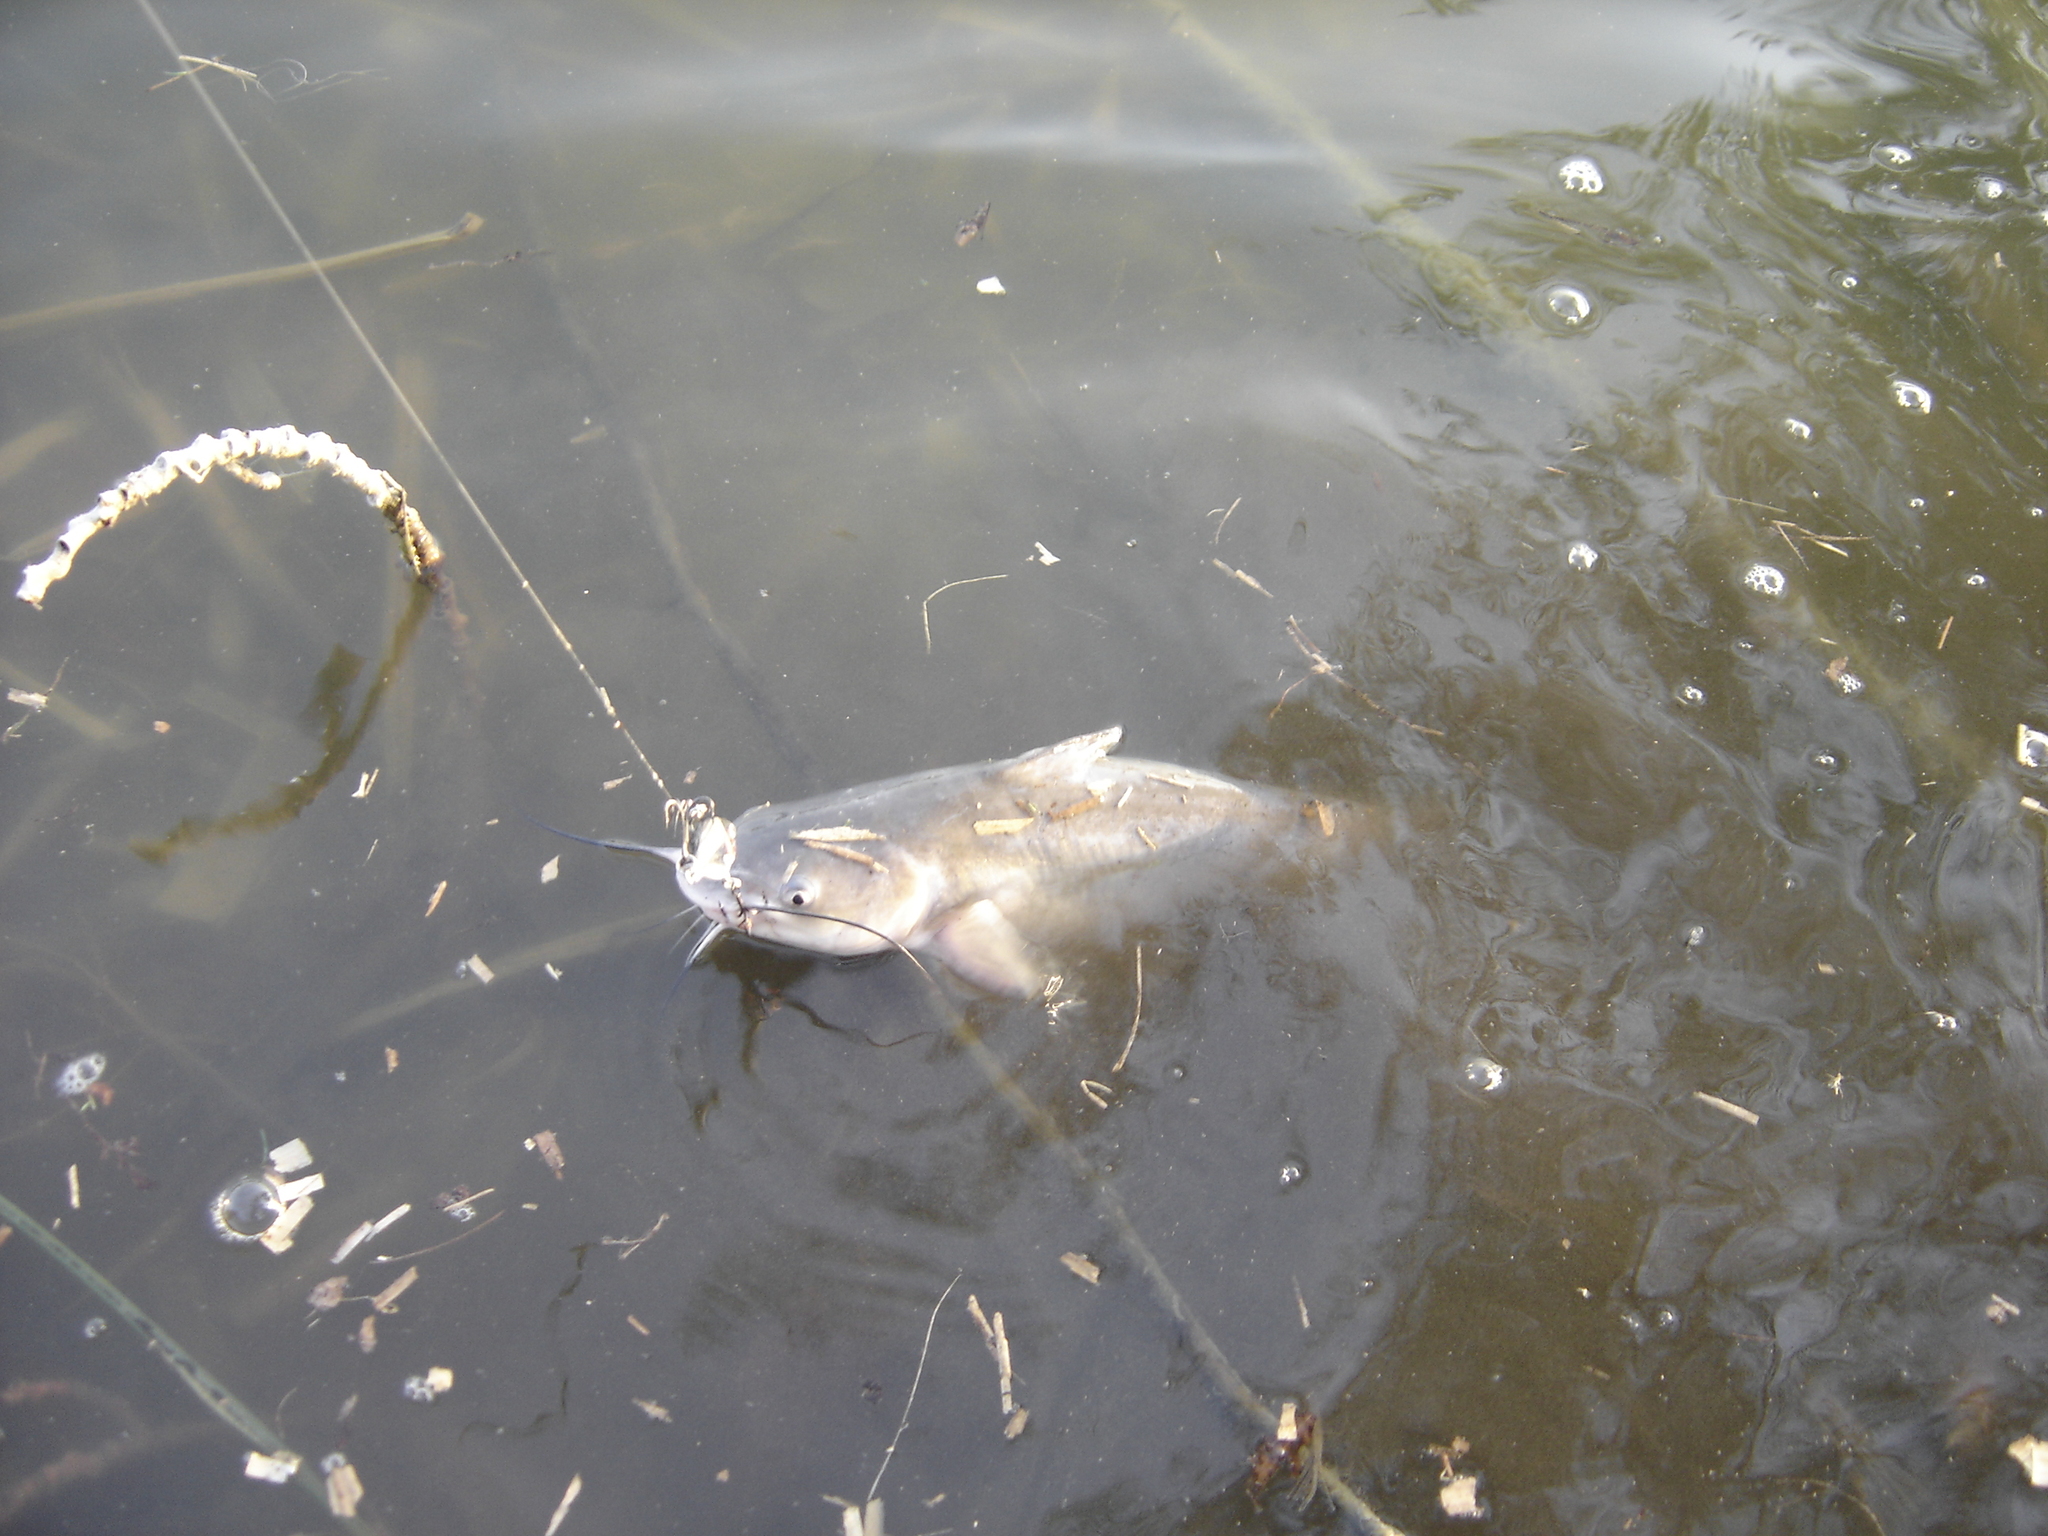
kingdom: Animalia
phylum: Chordata
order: Siluriformes
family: Ictaluridae
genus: Ictalurus
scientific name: Ictalurus punctatus
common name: Channel catfish
